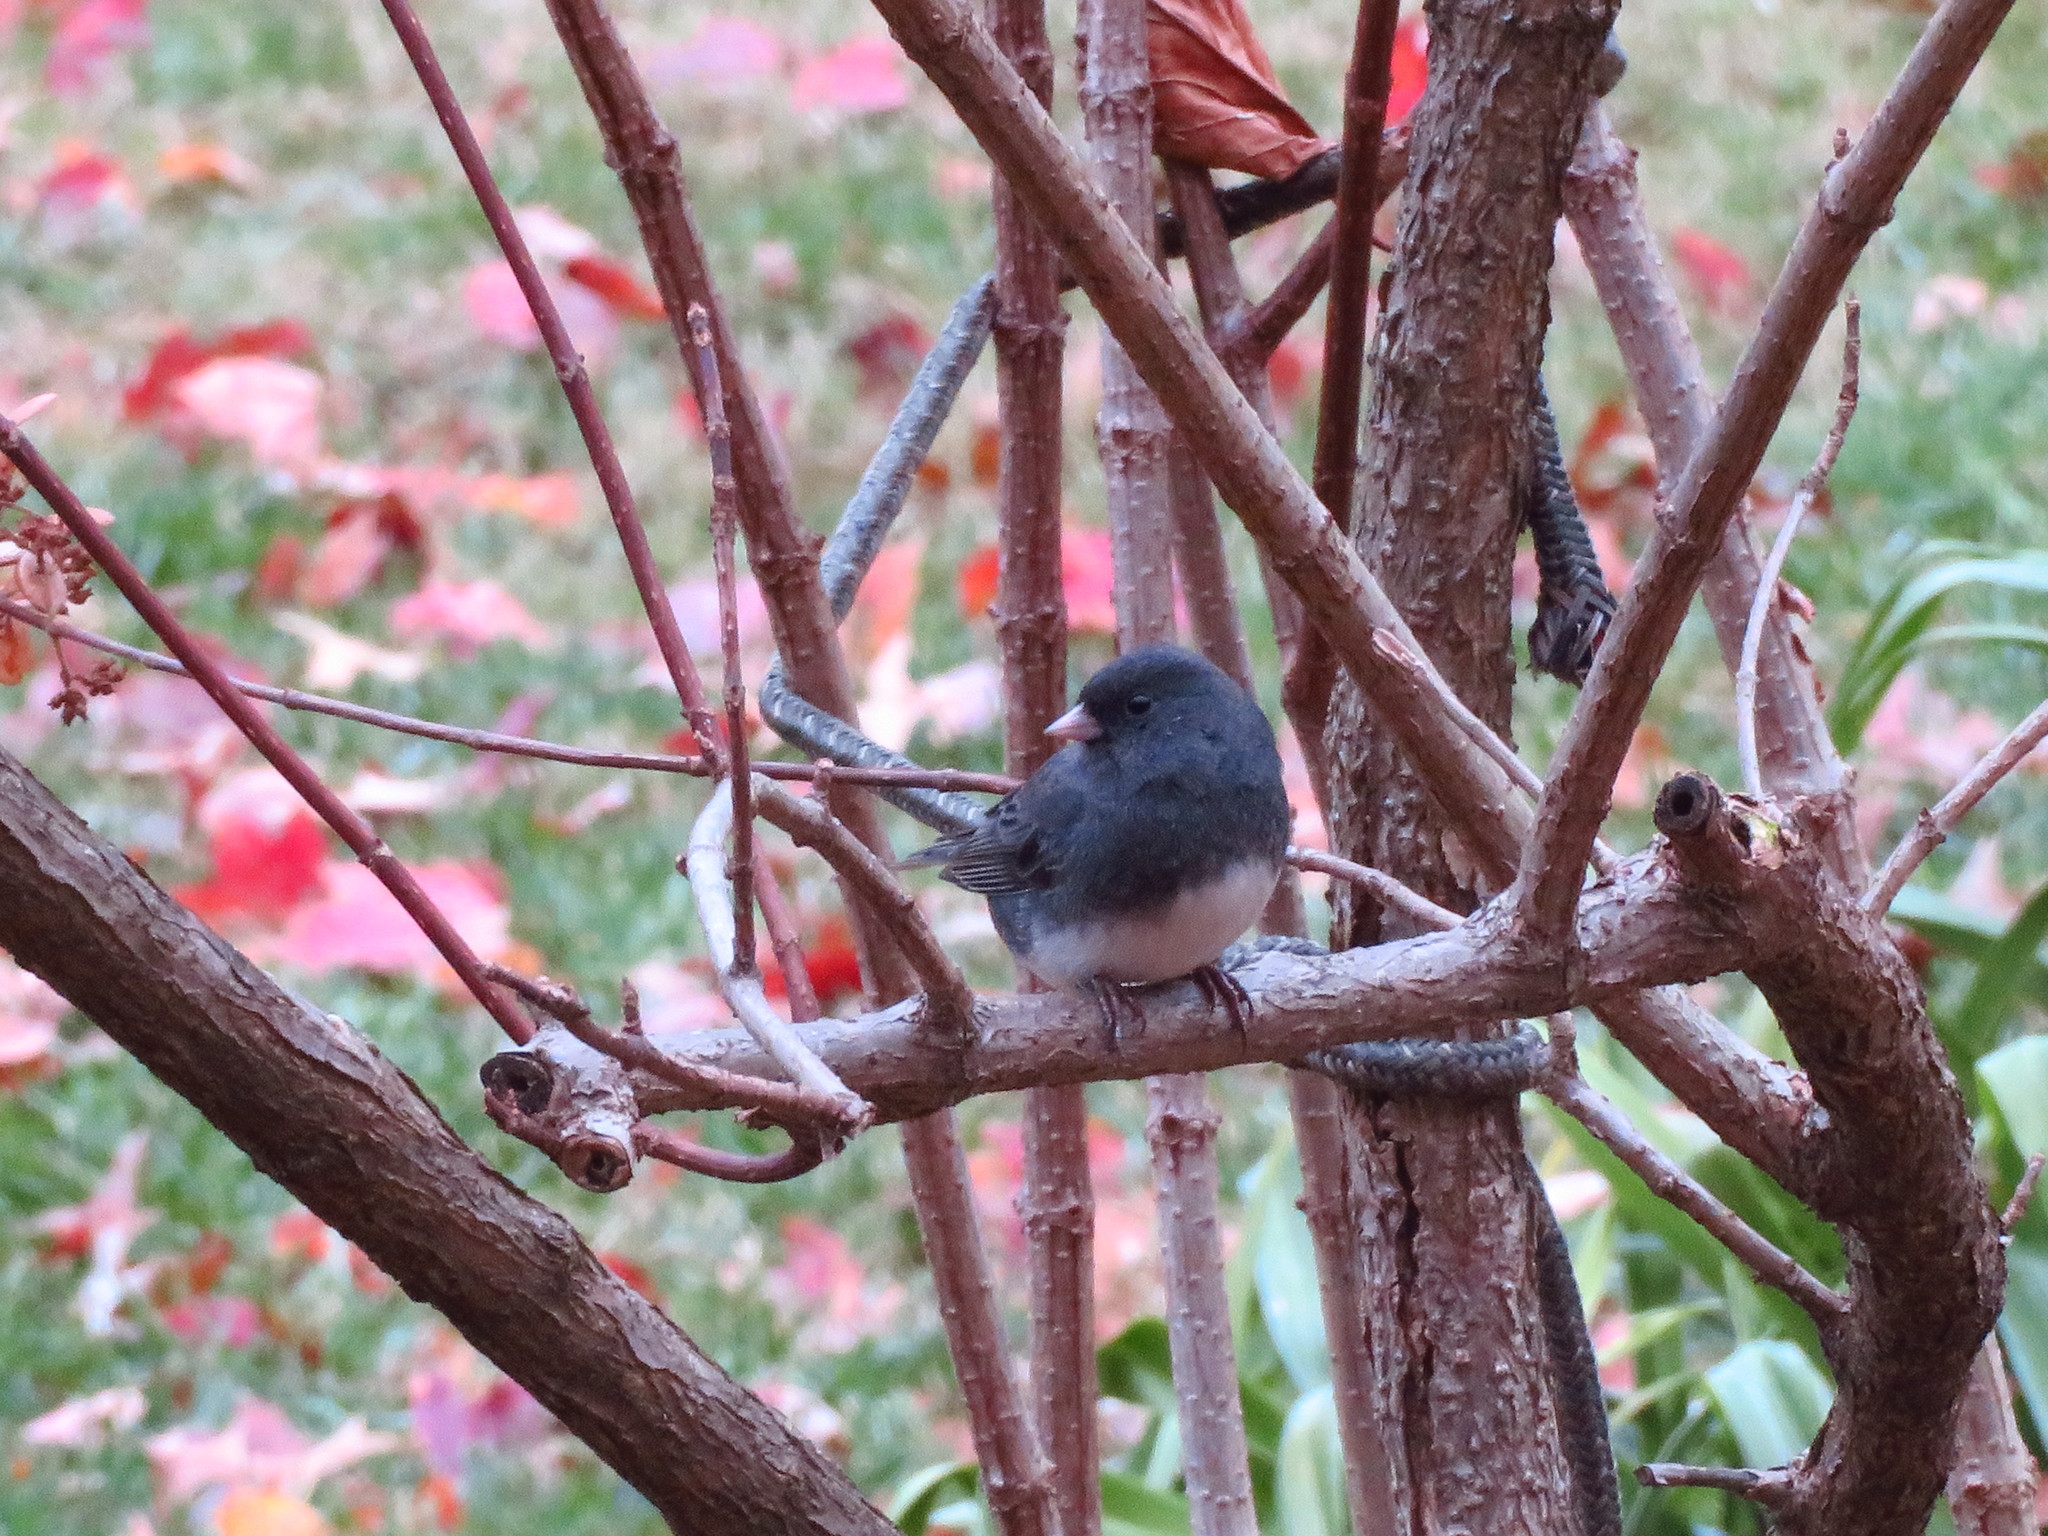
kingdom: Animalia
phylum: Chordata
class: Aves
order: Passeriformes
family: Passerellidae
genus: Junco
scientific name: Junco hyemalis
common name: Dark-eyed junco
